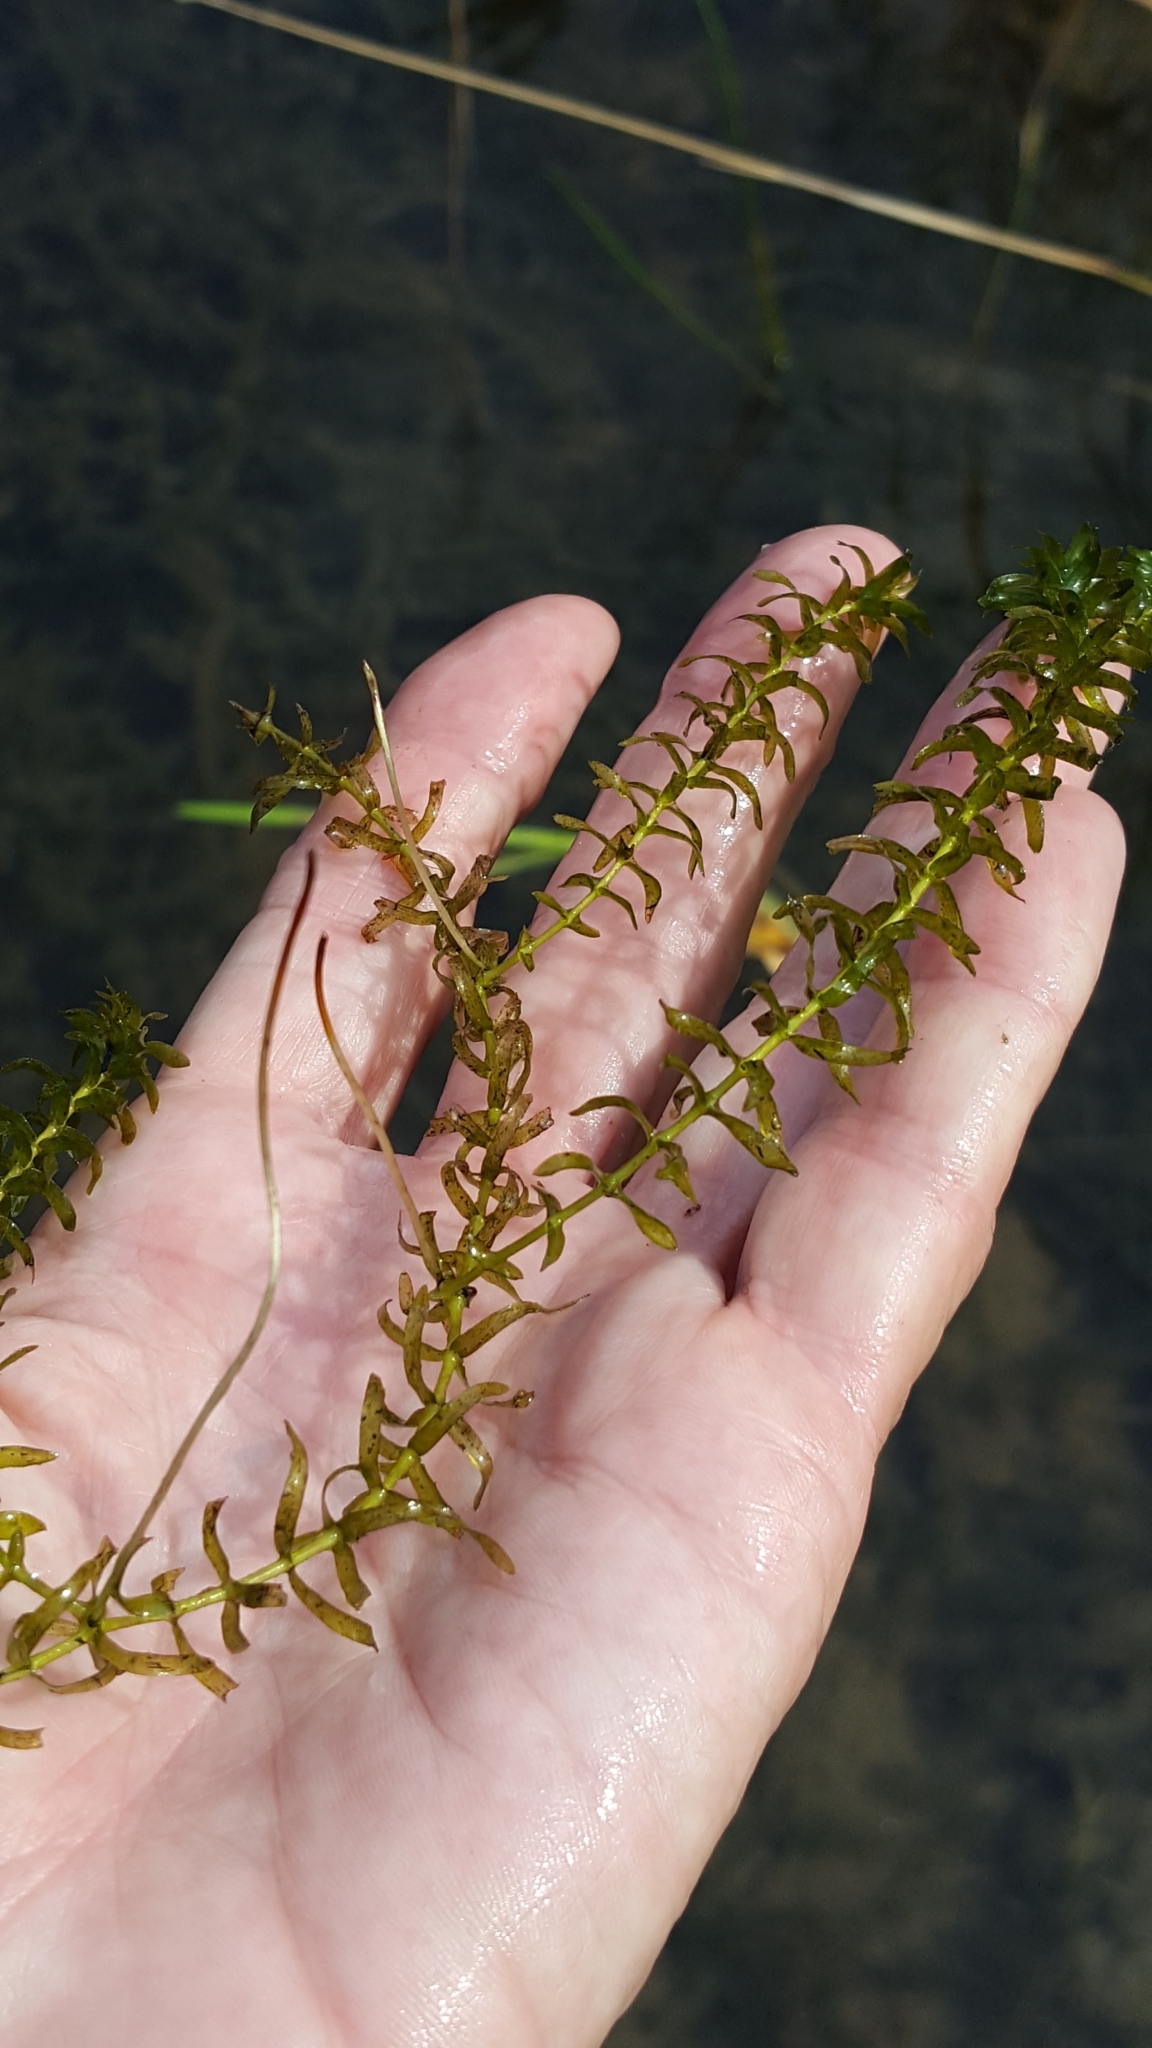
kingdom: Plantae
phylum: Tracheophyta
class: Liliopsida
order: Alismatales
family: Hydrocharitaceae
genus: Elodea
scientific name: Elodea canadensis
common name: Canadian waterweed
